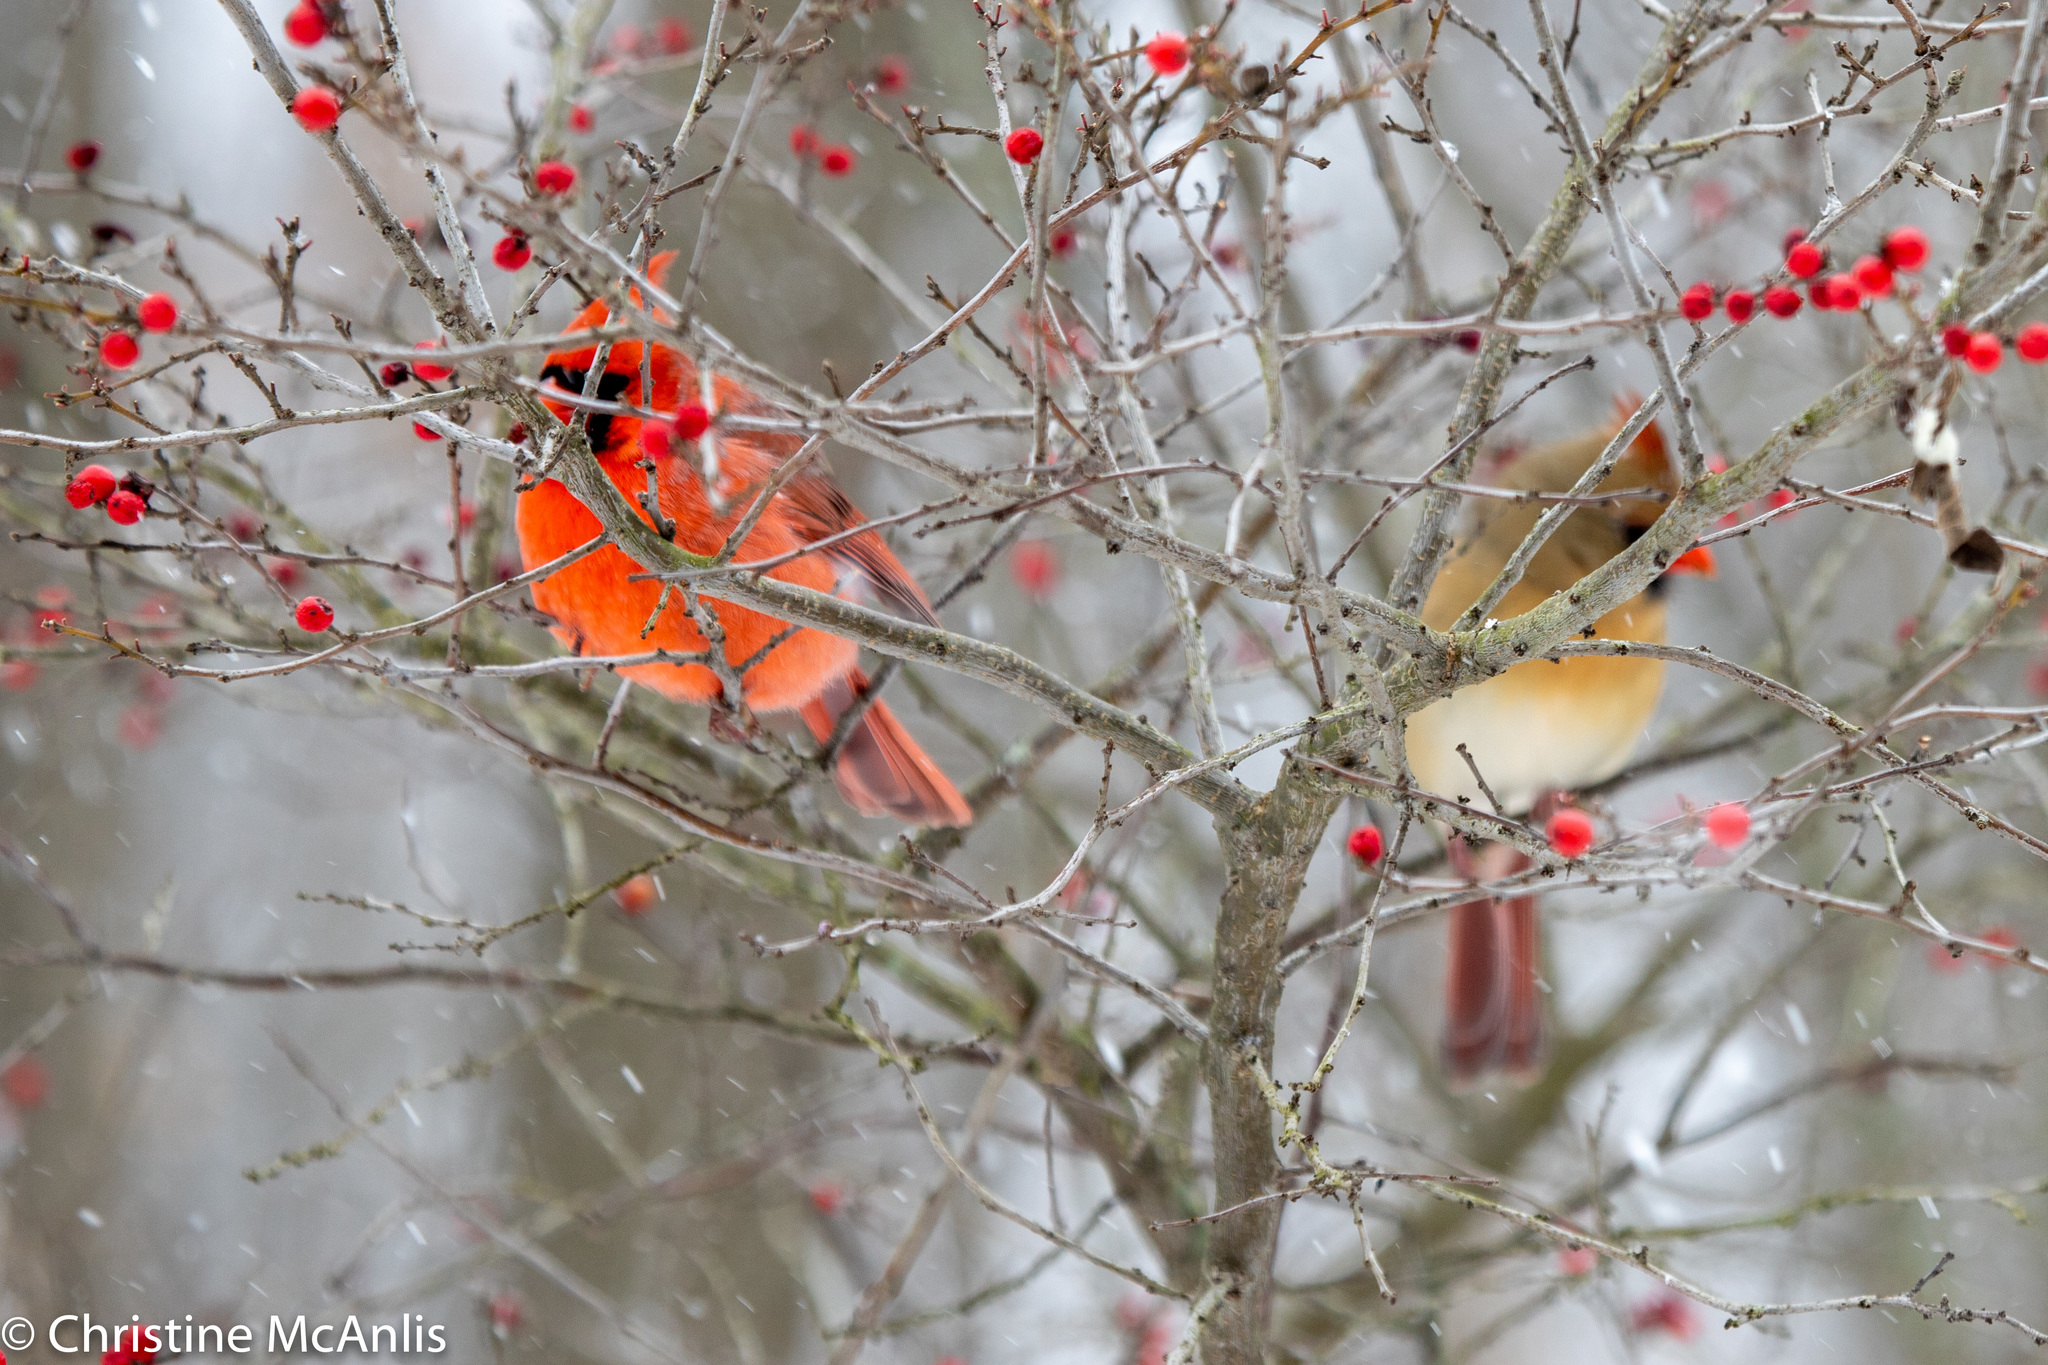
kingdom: Animalia
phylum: Chordata
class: Aves
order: Passeriformes
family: Cardinalidae
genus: Cardinalis
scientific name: Cardinalis cardinalis
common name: Northern cardinal
